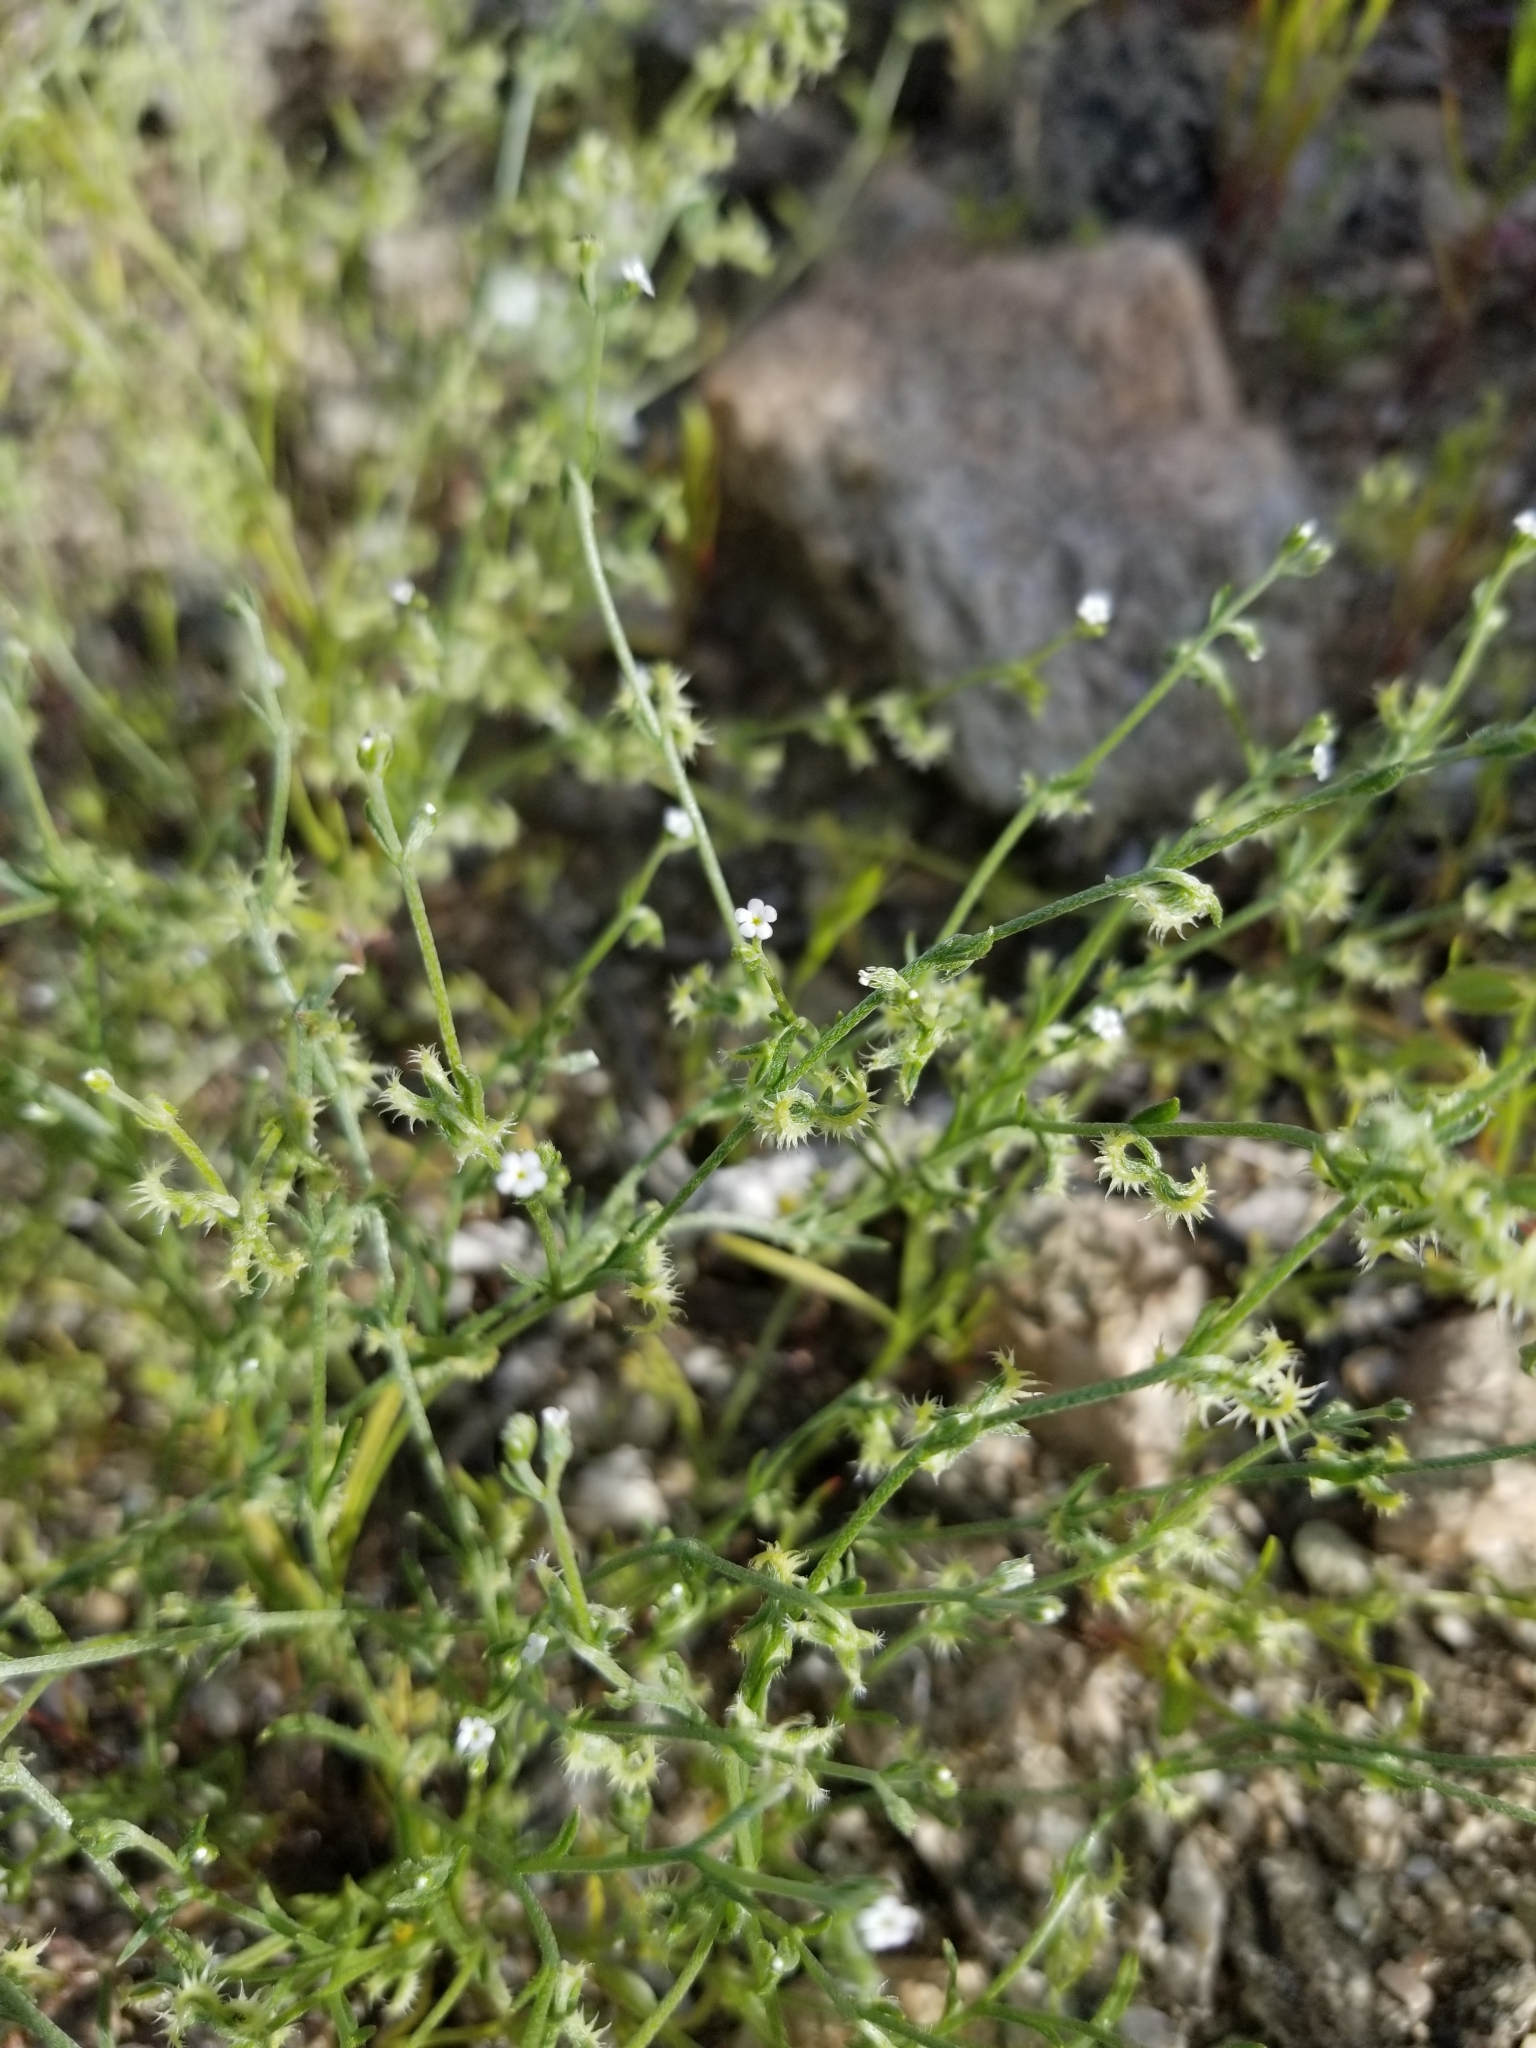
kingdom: Plantae
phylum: Tracheophyta
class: Magnoliopsida
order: Boraginales
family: Boraginaceae
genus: Pectocarya
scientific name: Pectocarya recurvata
